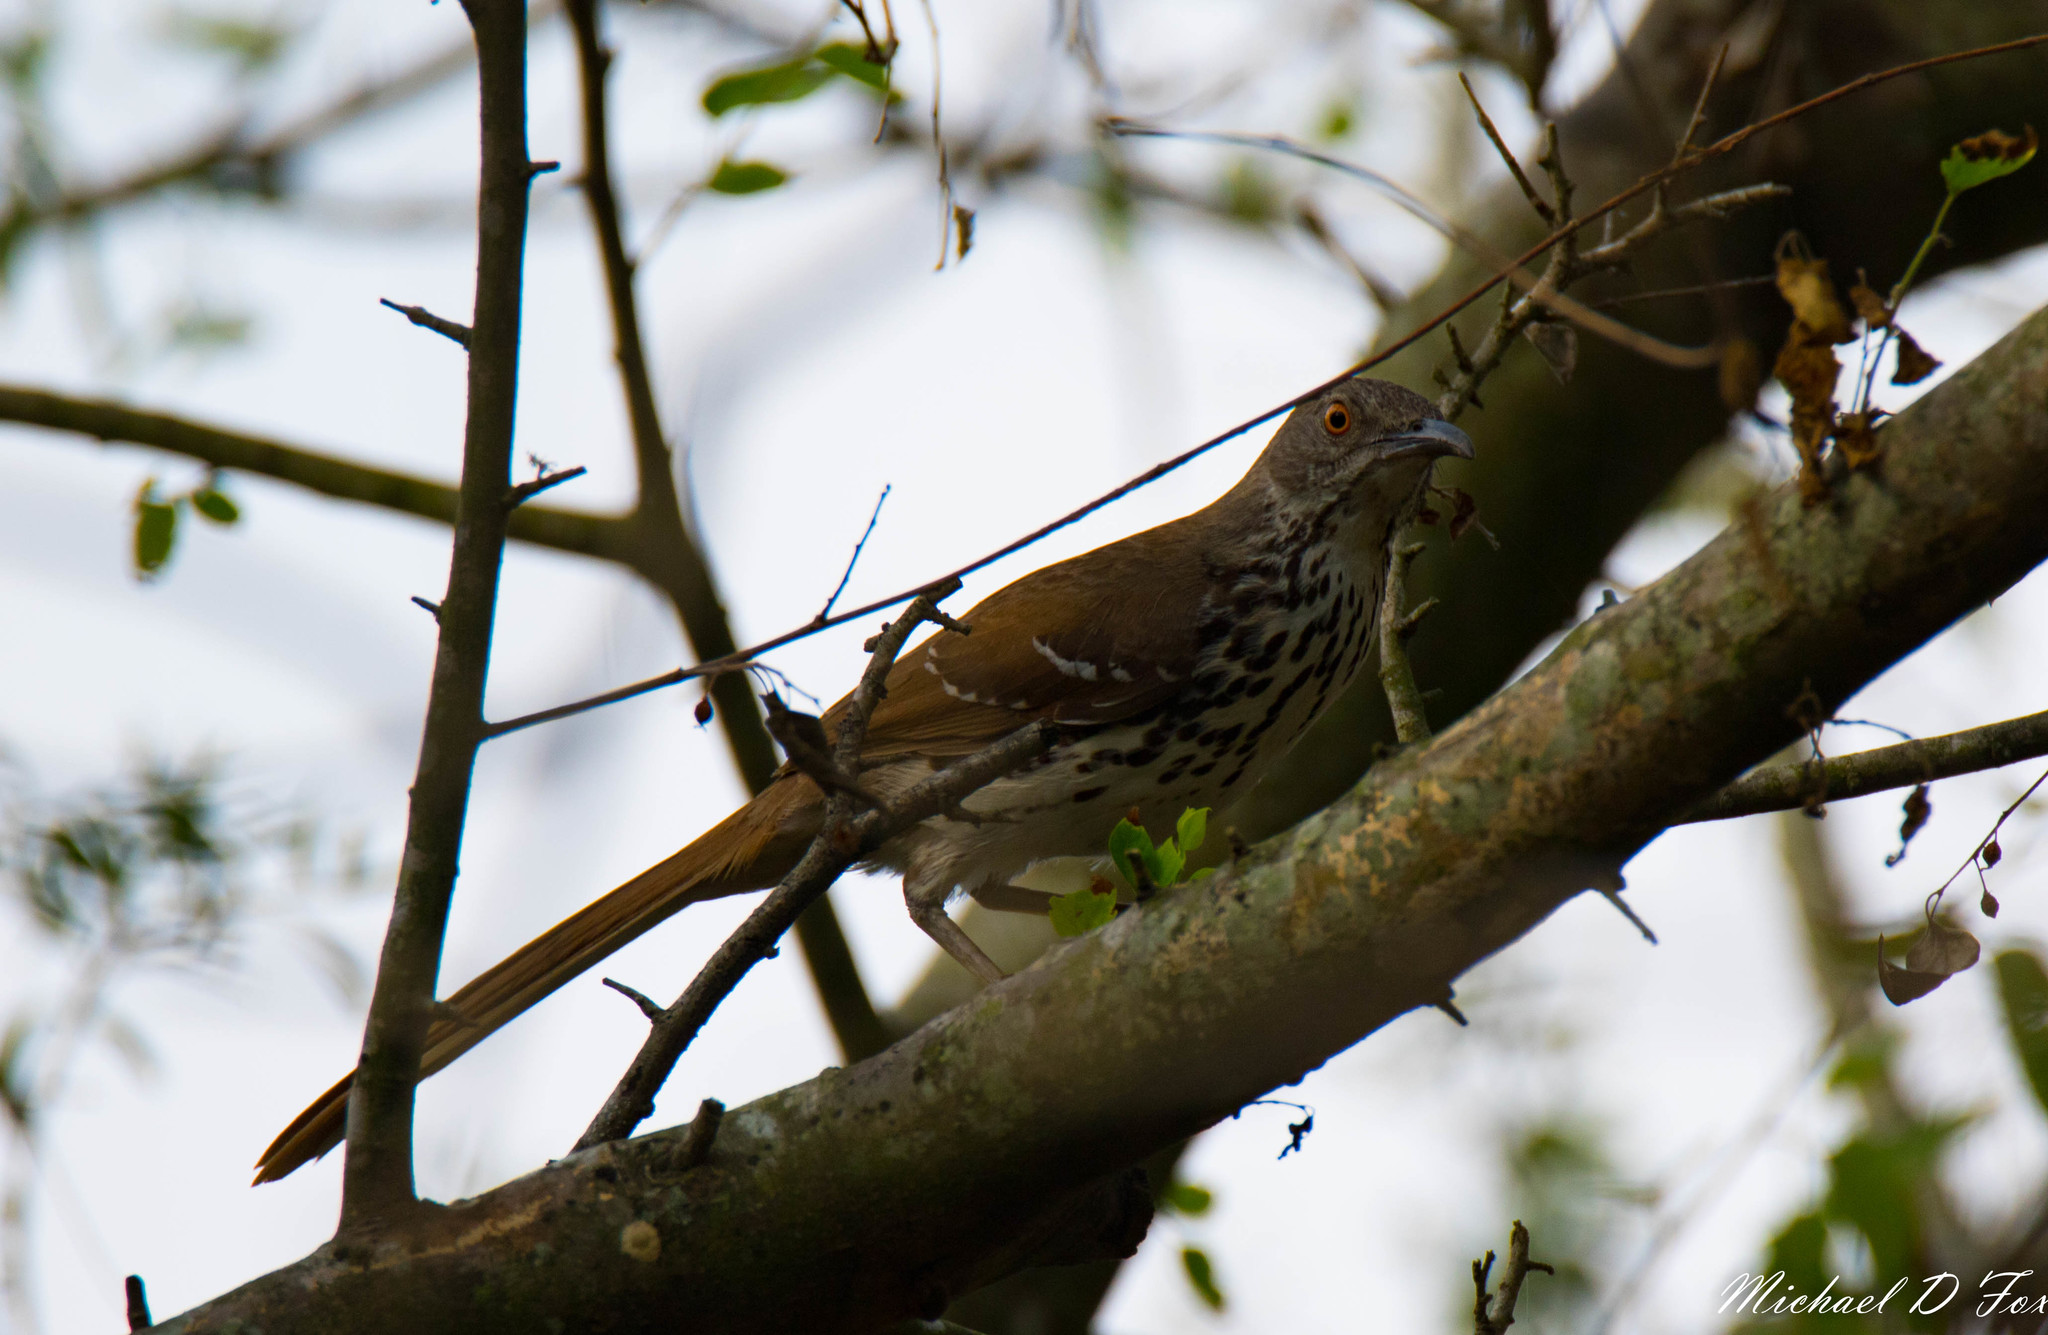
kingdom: Animalia
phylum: Chordata
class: Aves
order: Passeriformes
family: Mimidae
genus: Toxostoma
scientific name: Toxostoma longirostre
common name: Long-billed thrasher
